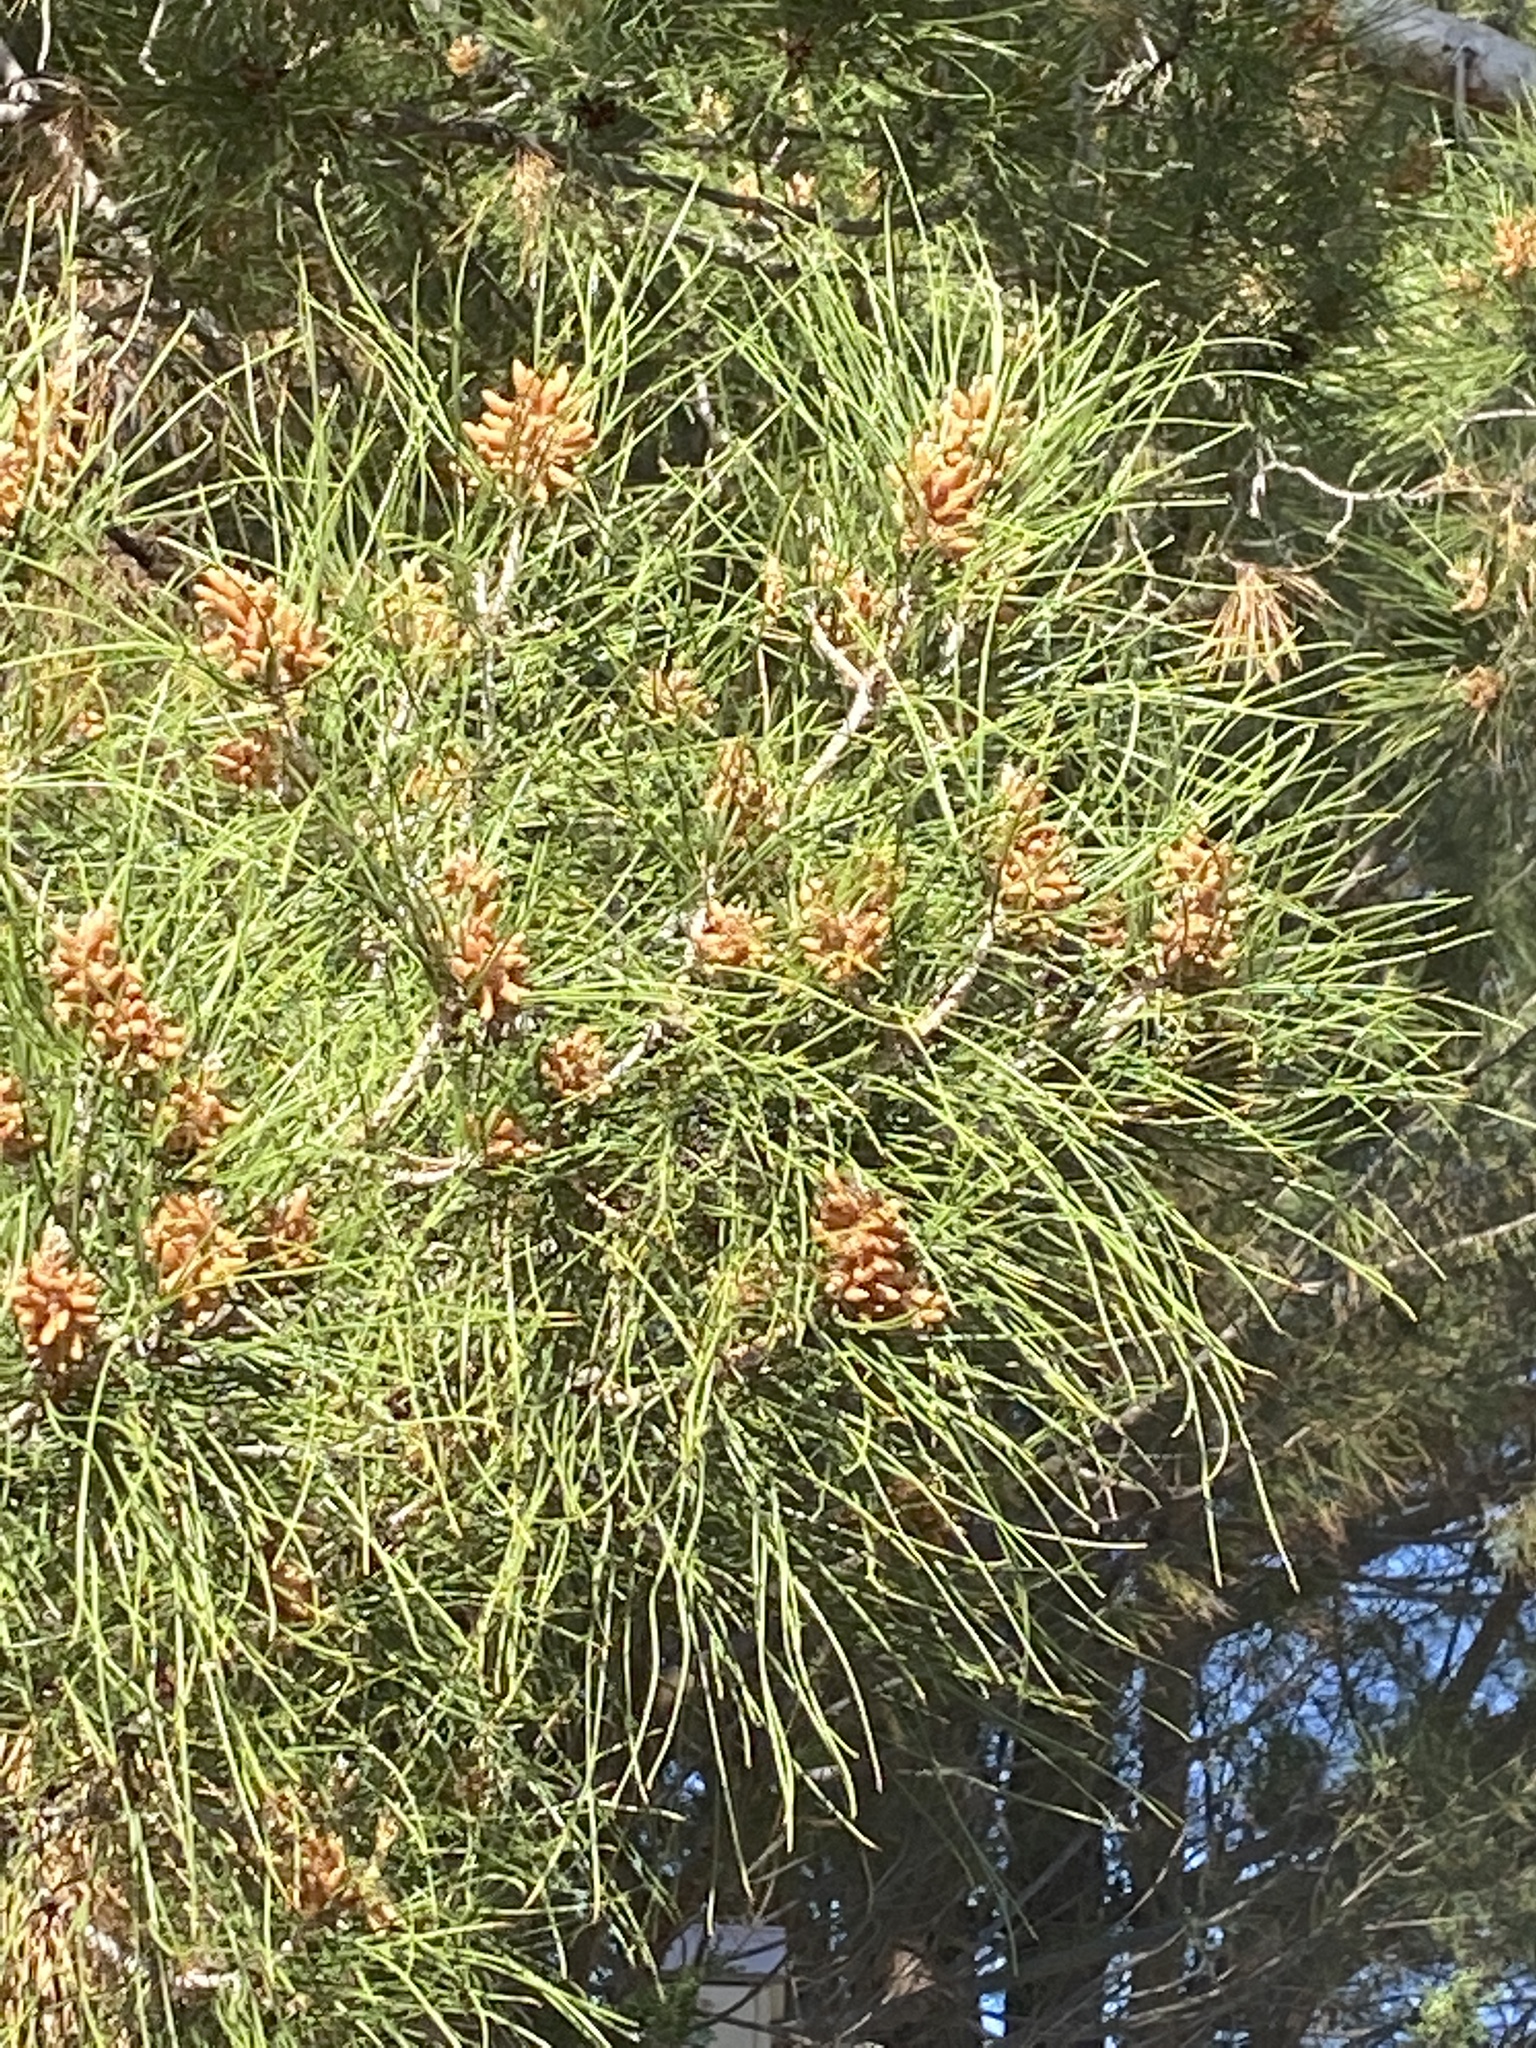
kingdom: Plantae
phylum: Tracheophyta
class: Pinopsida
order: Pinales
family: Pinaceae
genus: Pinus
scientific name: Pinus brutia
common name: Turkish pine
